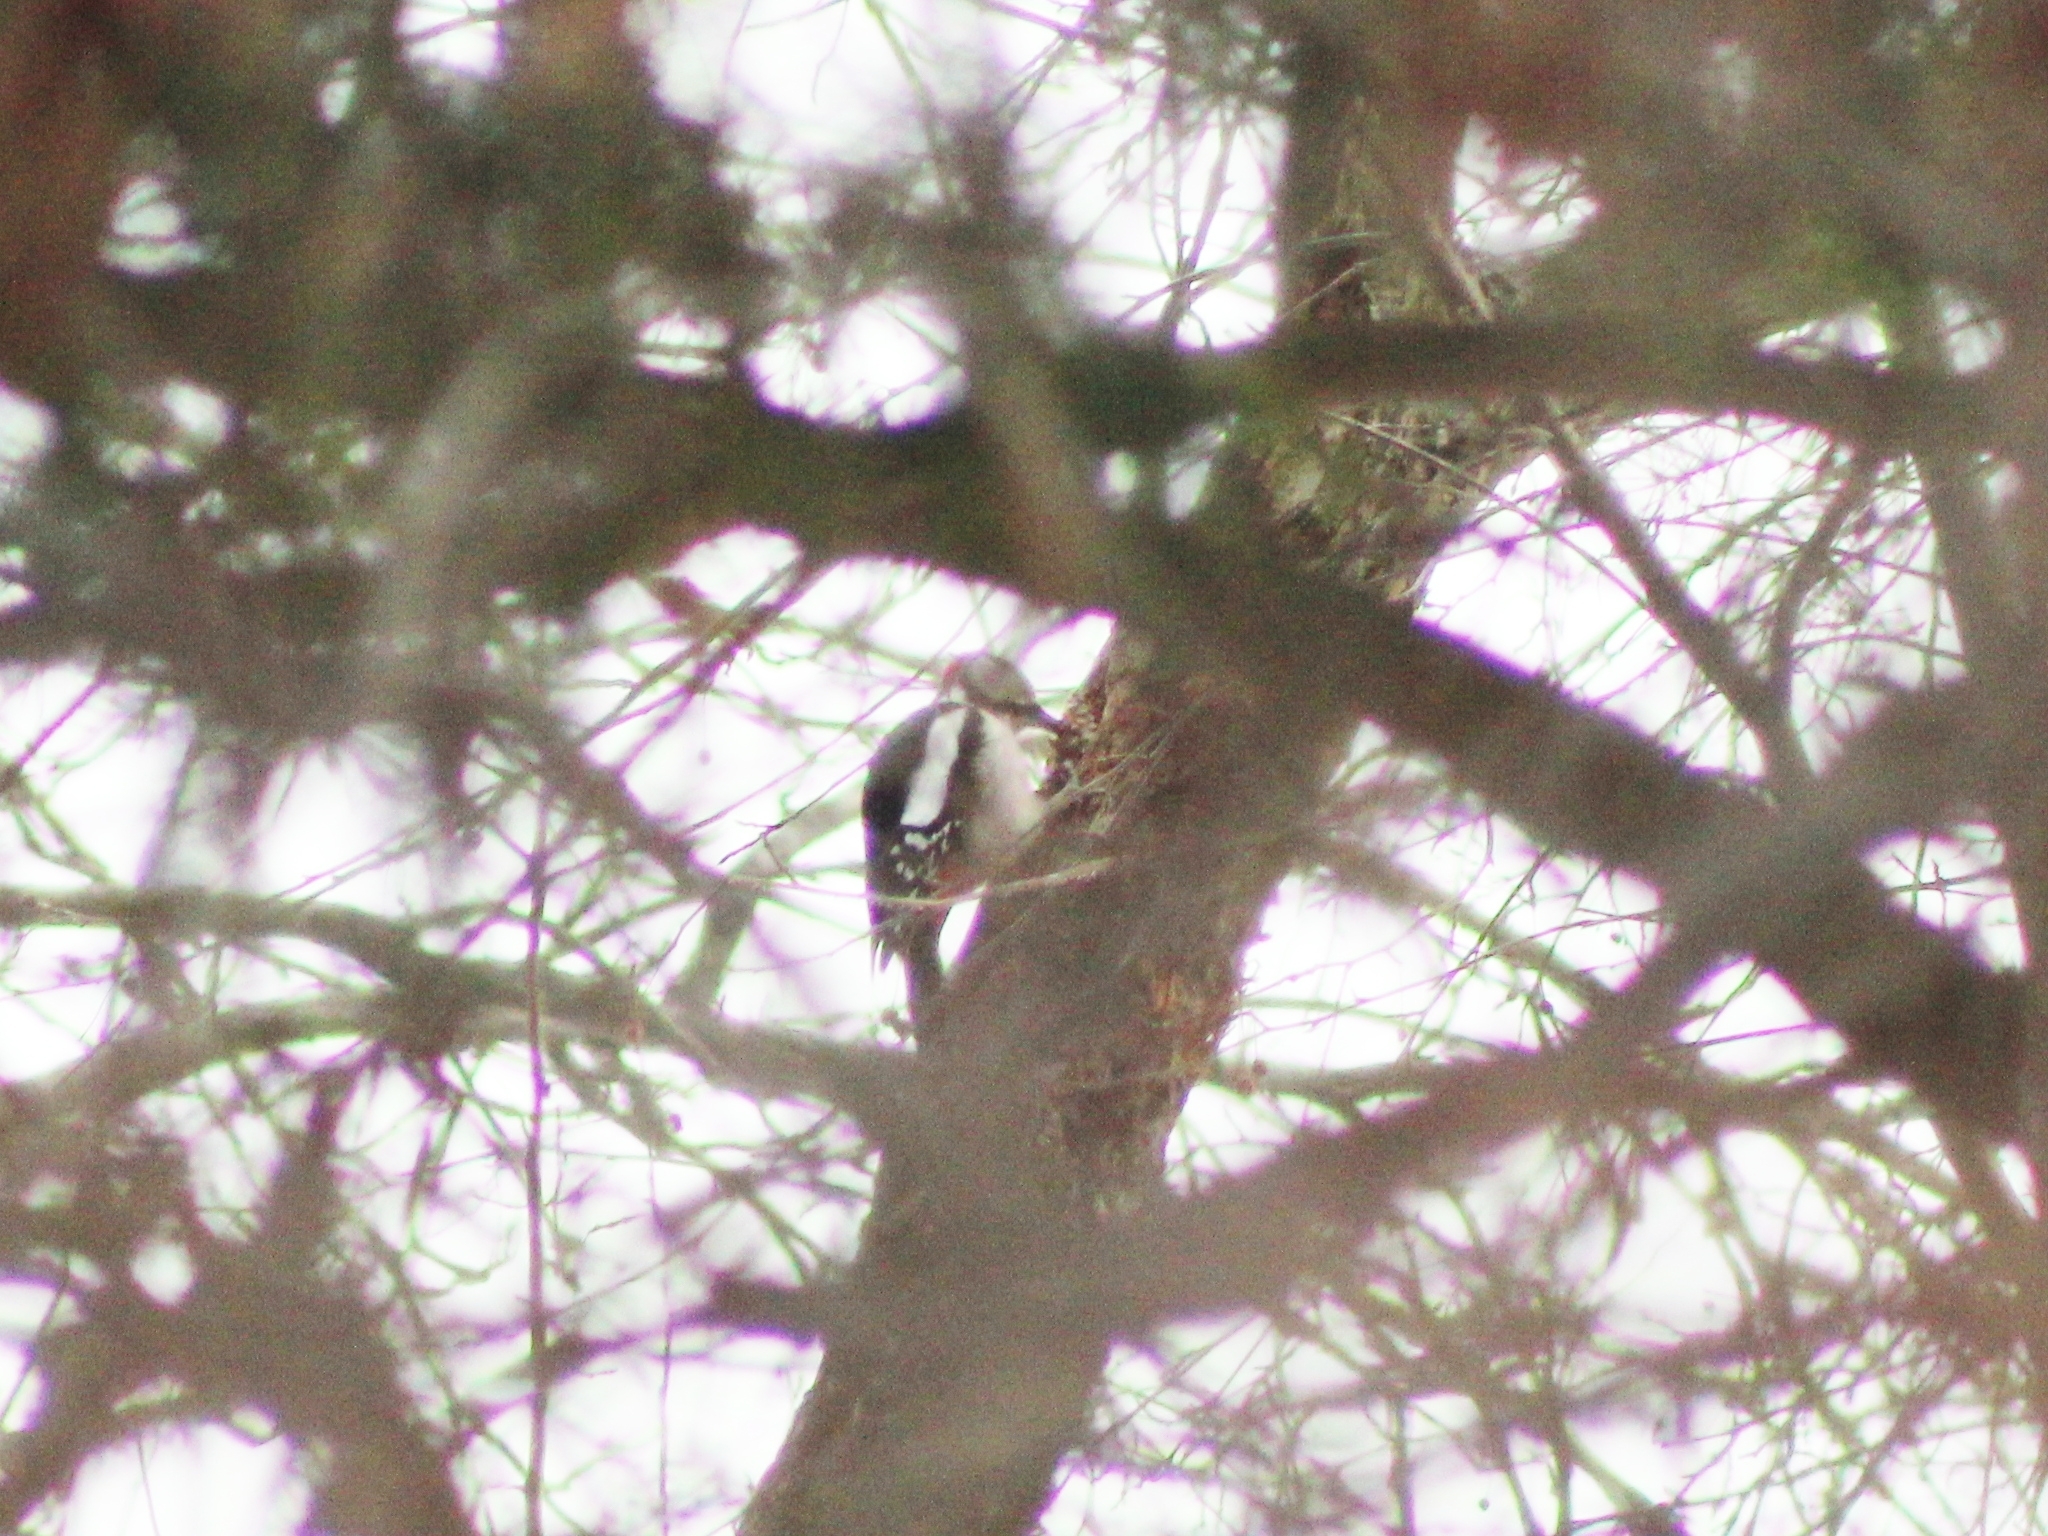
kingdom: Animalia
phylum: Chordata
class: Aves
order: Piciformes
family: Picidae
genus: Dendrocopos
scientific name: Dendrocopos major
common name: Great spotted woodpecker
